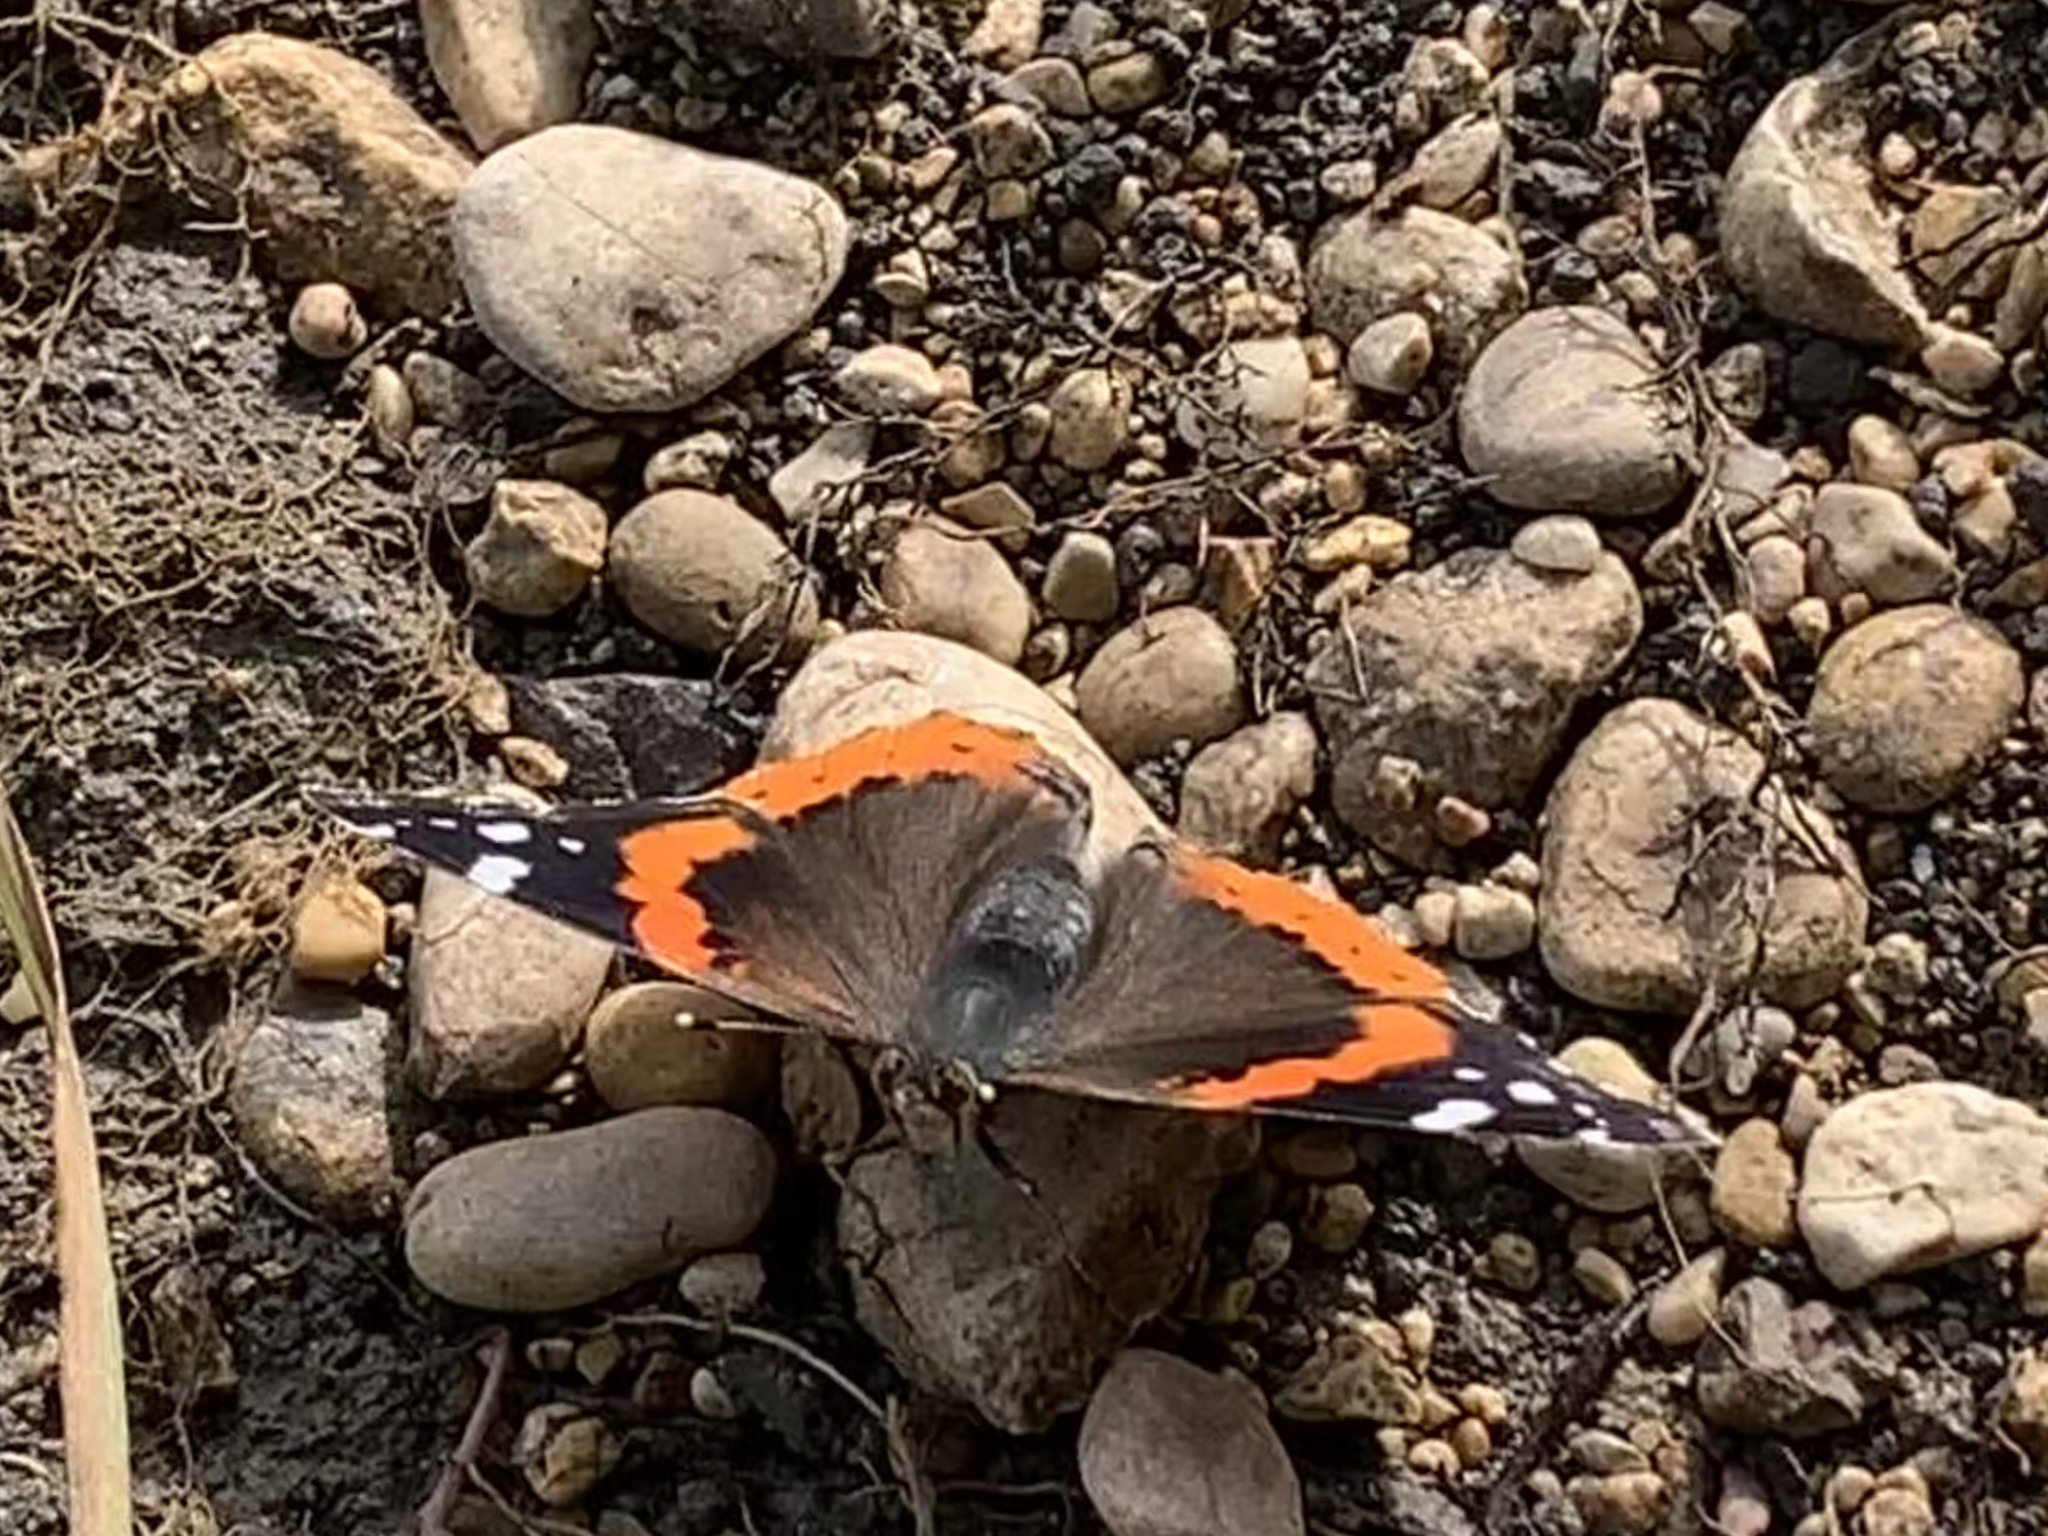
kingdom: Animalia
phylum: Arthropoda
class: Insecta
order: Lepidoptera
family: Nymphalidae
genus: Vanessa
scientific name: Vanessa atalanta
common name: Red admiral
